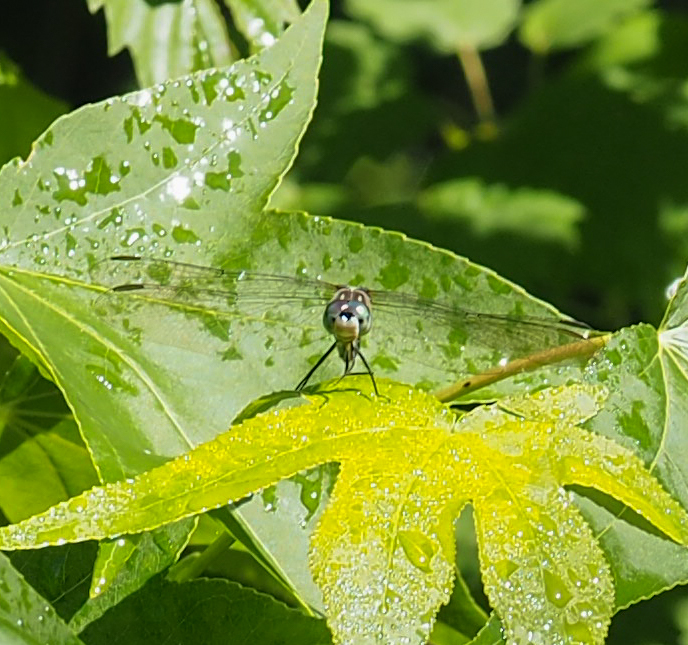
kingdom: Animalia
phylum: Arthropoda
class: Insecta
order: Odonata
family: Libellulidae
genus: Pachydiplax
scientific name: Pachydiplax longipennis
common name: Blue dasher
